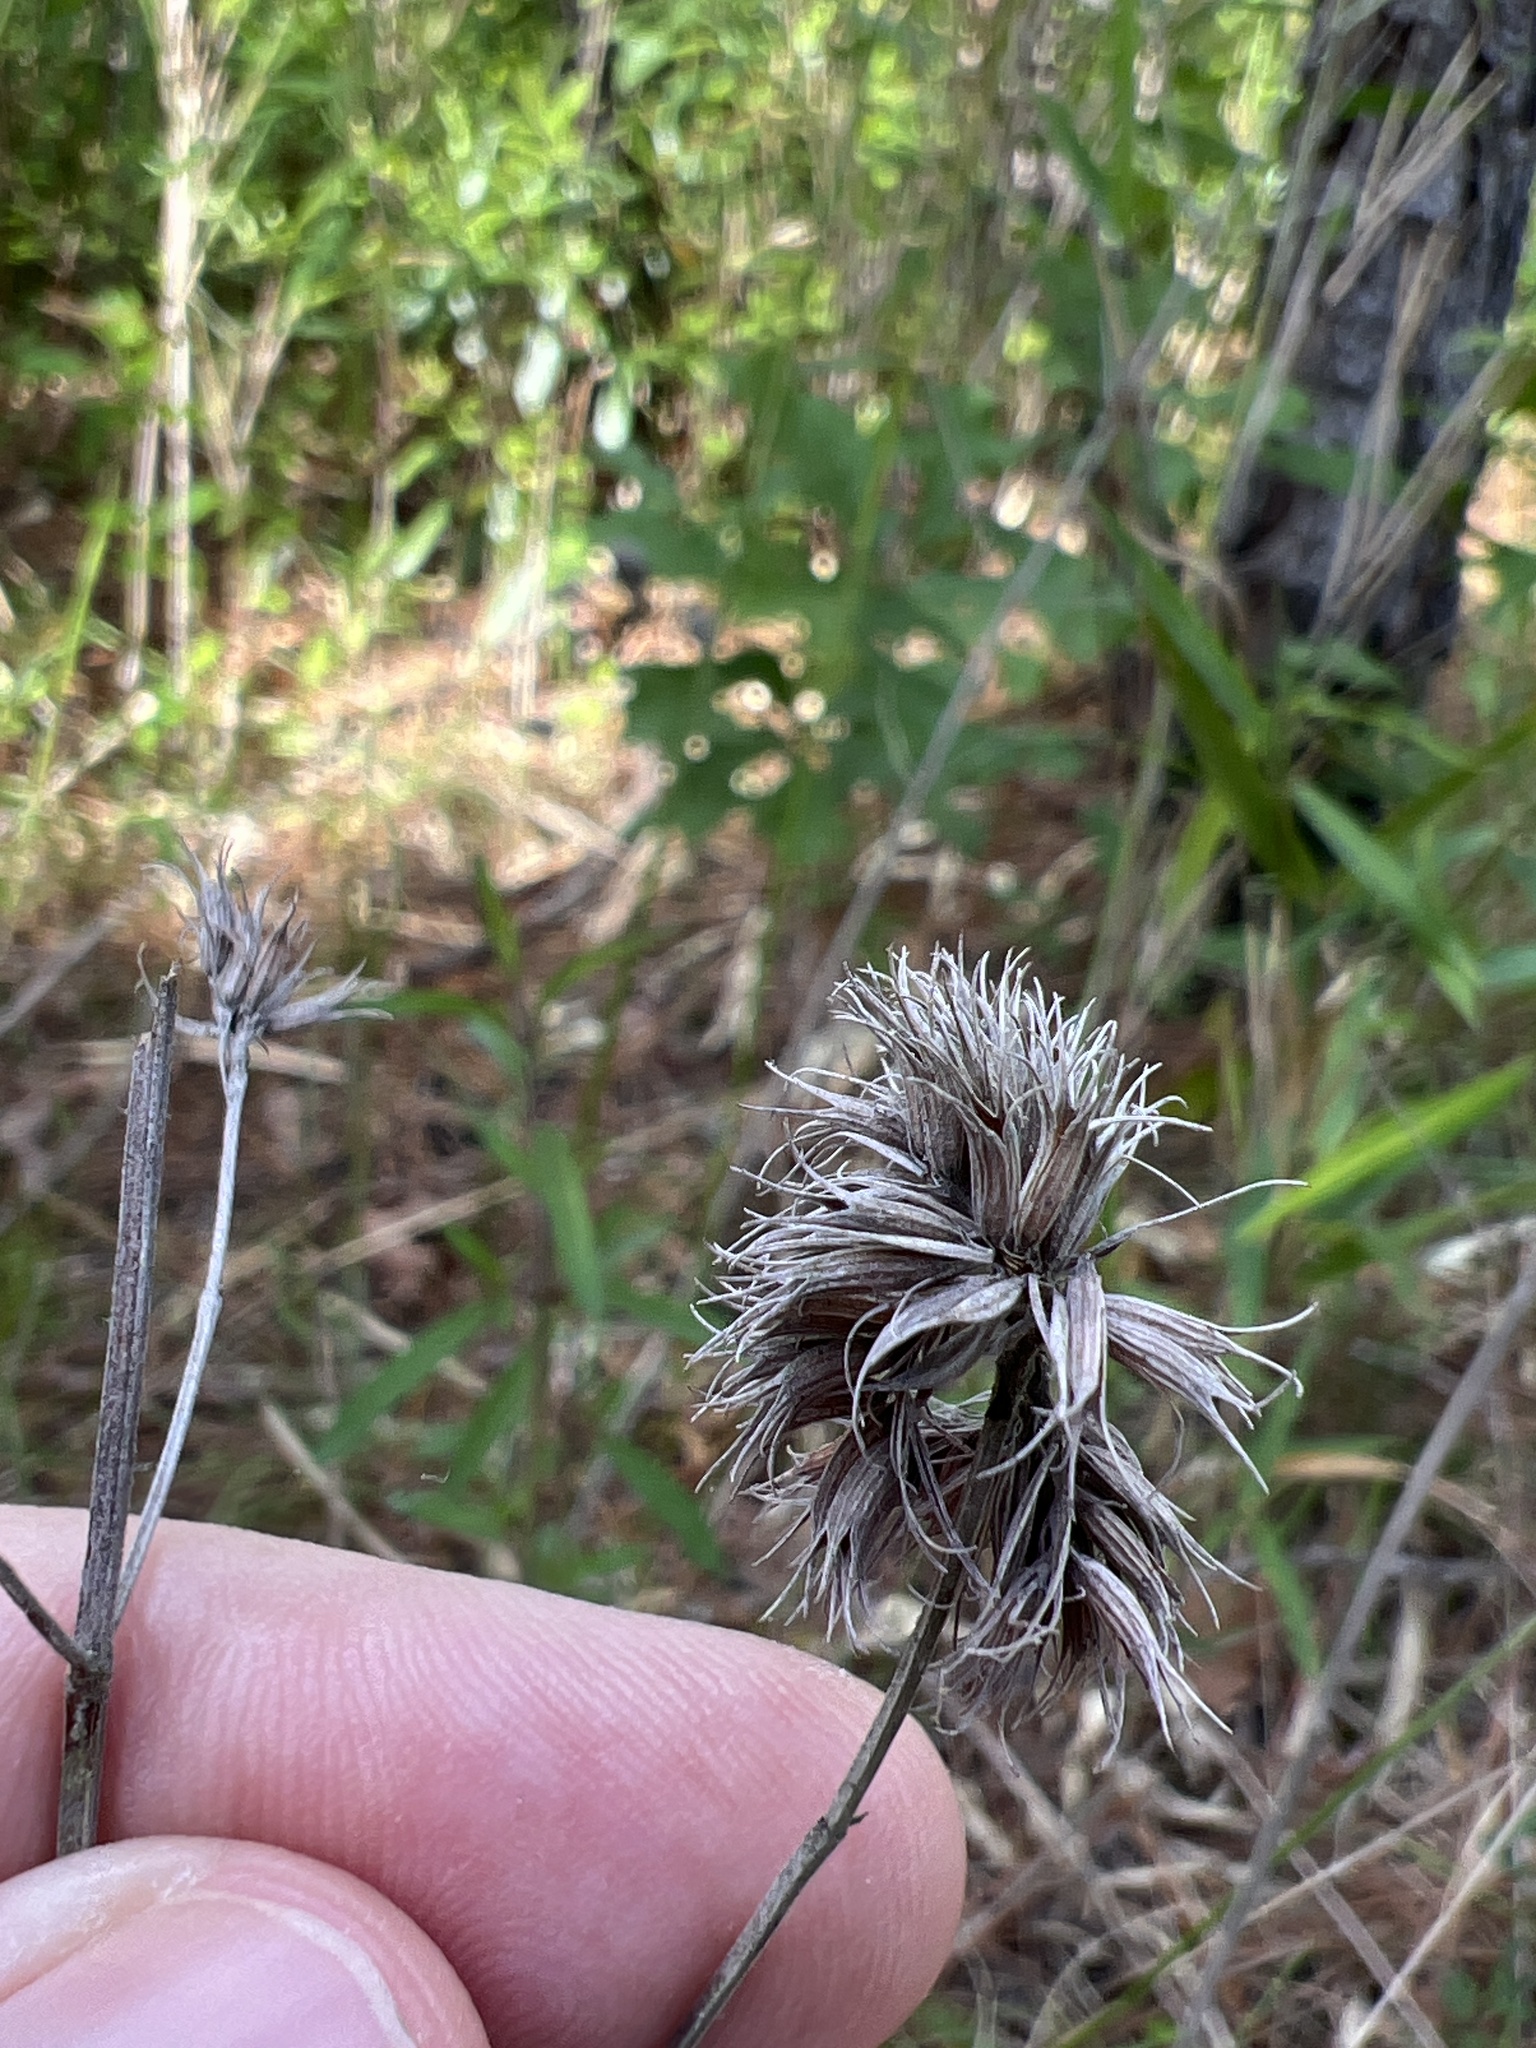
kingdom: Plantae
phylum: Tracheophyta
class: Magnoliopsida
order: Lamiales
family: Lamiaceae
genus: Pycnanthemum
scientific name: Pycnanthemum flexuosum
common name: Appalachian mountain-mint
